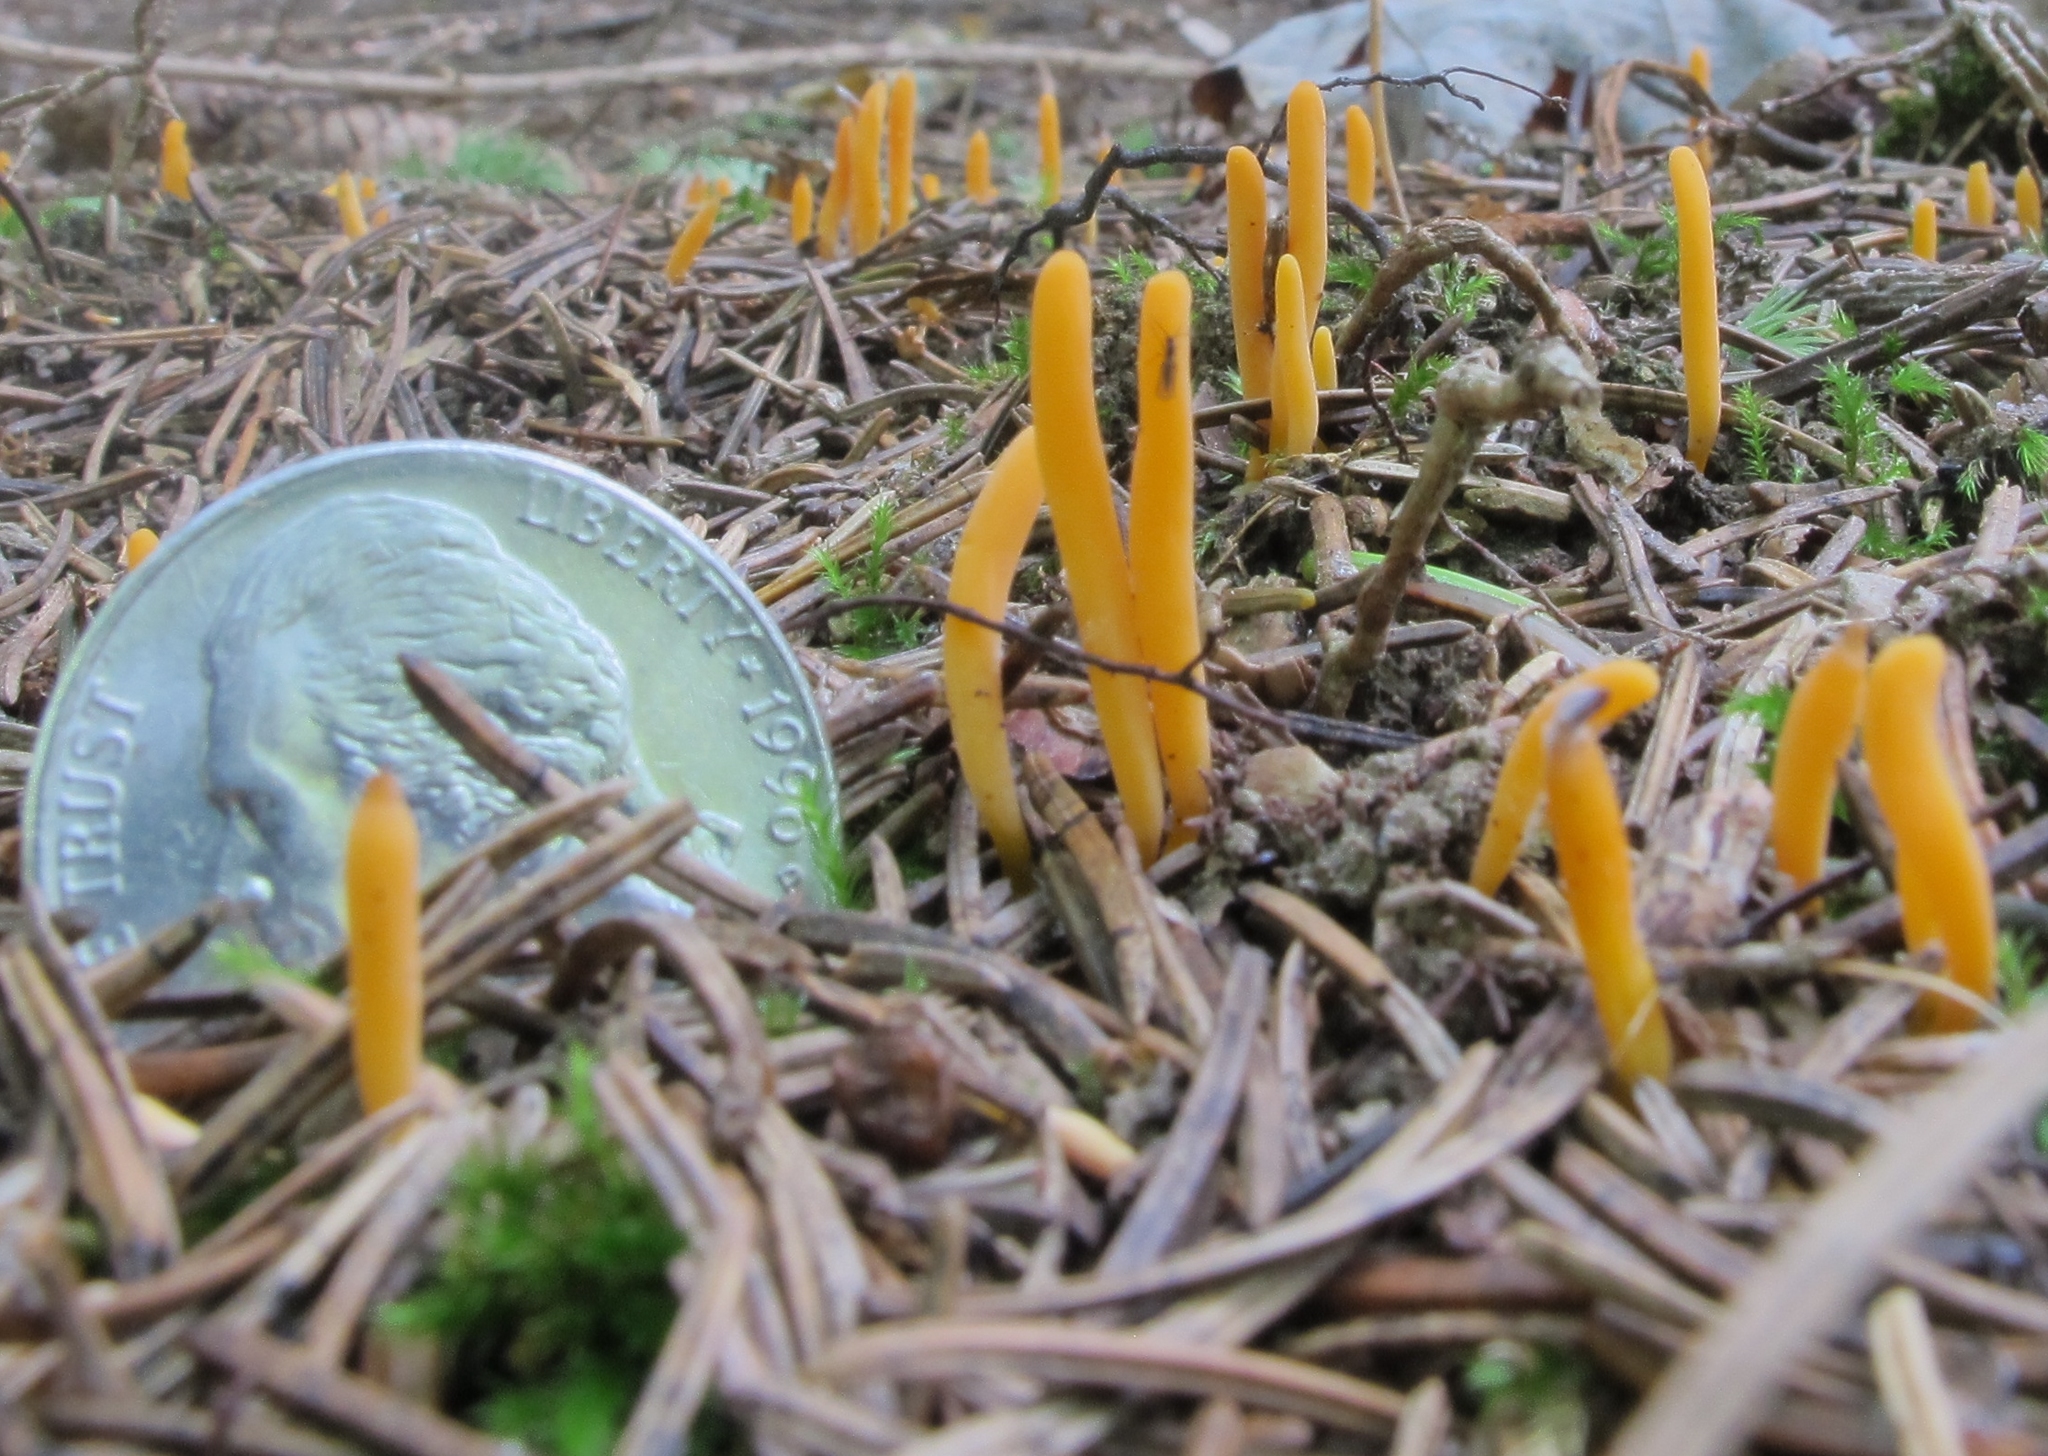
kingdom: Fungi
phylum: Basidiomycota
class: Agaricomycetes
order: Agaricales
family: Clavariaceae
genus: Clavulinopsis
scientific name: Clavulinopsis laeticolor
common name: Handsome club
